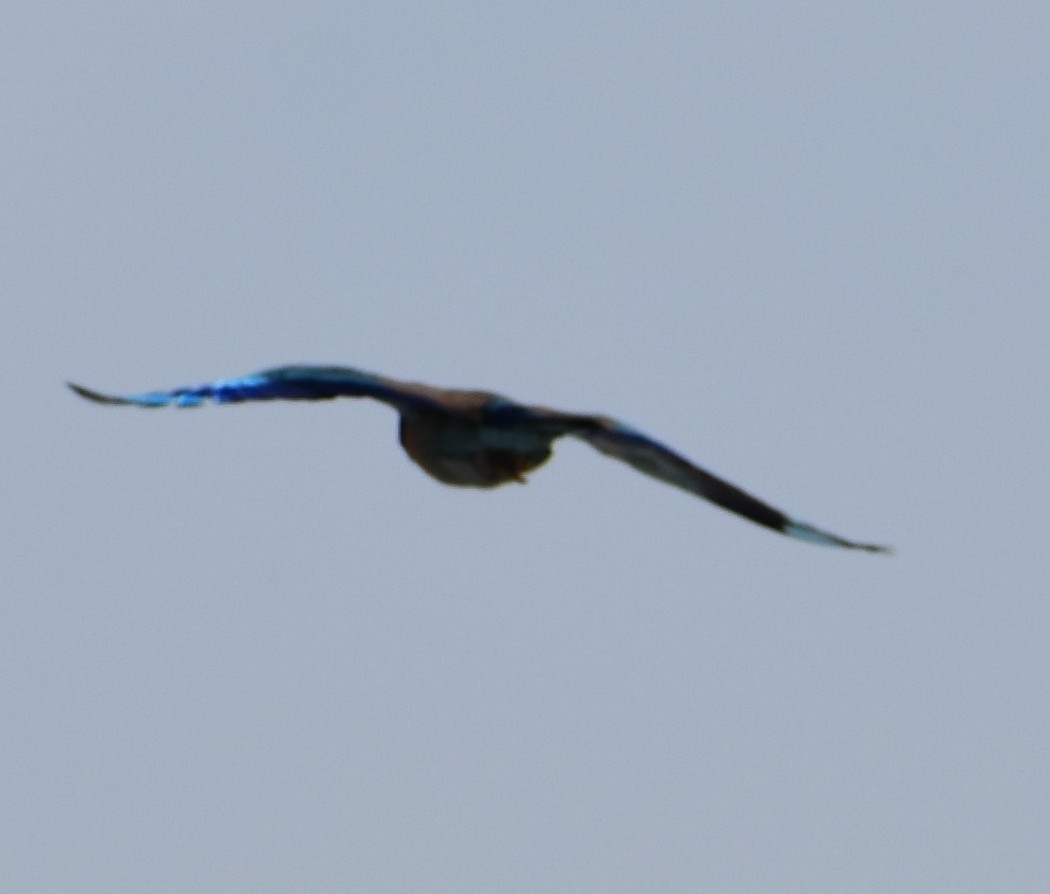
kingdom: Animalia
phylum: Chordata
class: Aves
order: Coraciiformes
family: Coraciidae
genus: Coracias
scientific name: Coracias benghalensis
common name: Indian roller
